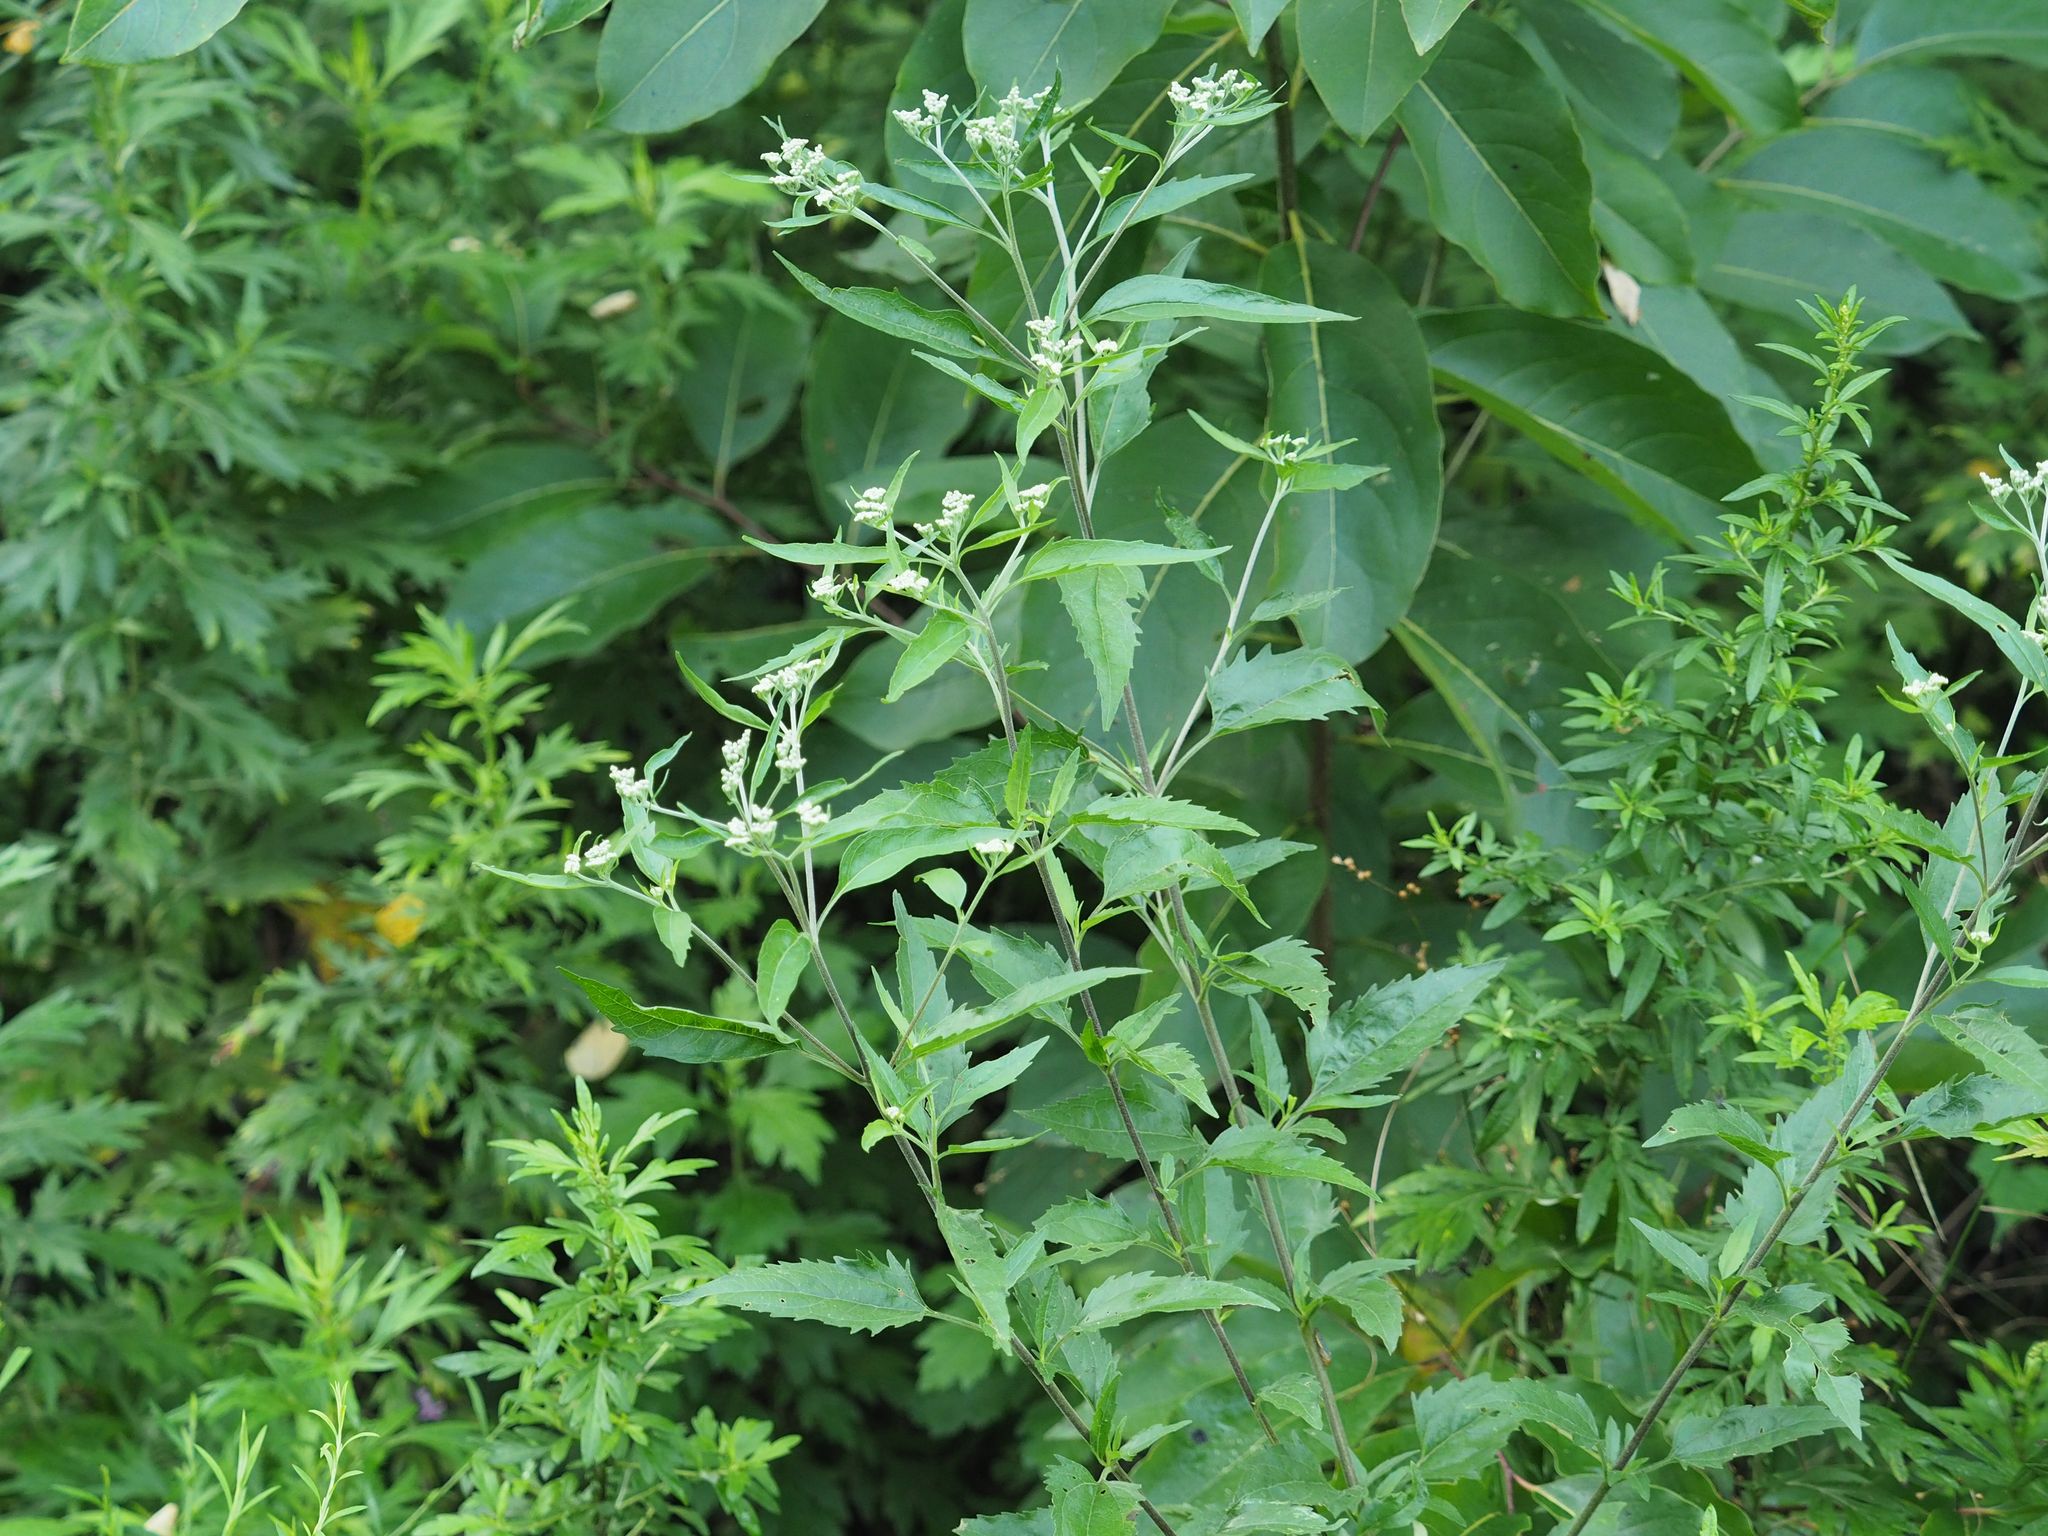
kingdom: Plantae
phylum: Tracheophyta
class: Magnoliopsida
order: Asterales
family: Asteraceae
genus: Eupatorium
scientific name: Eupatorium serotinum
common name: Late boneset
